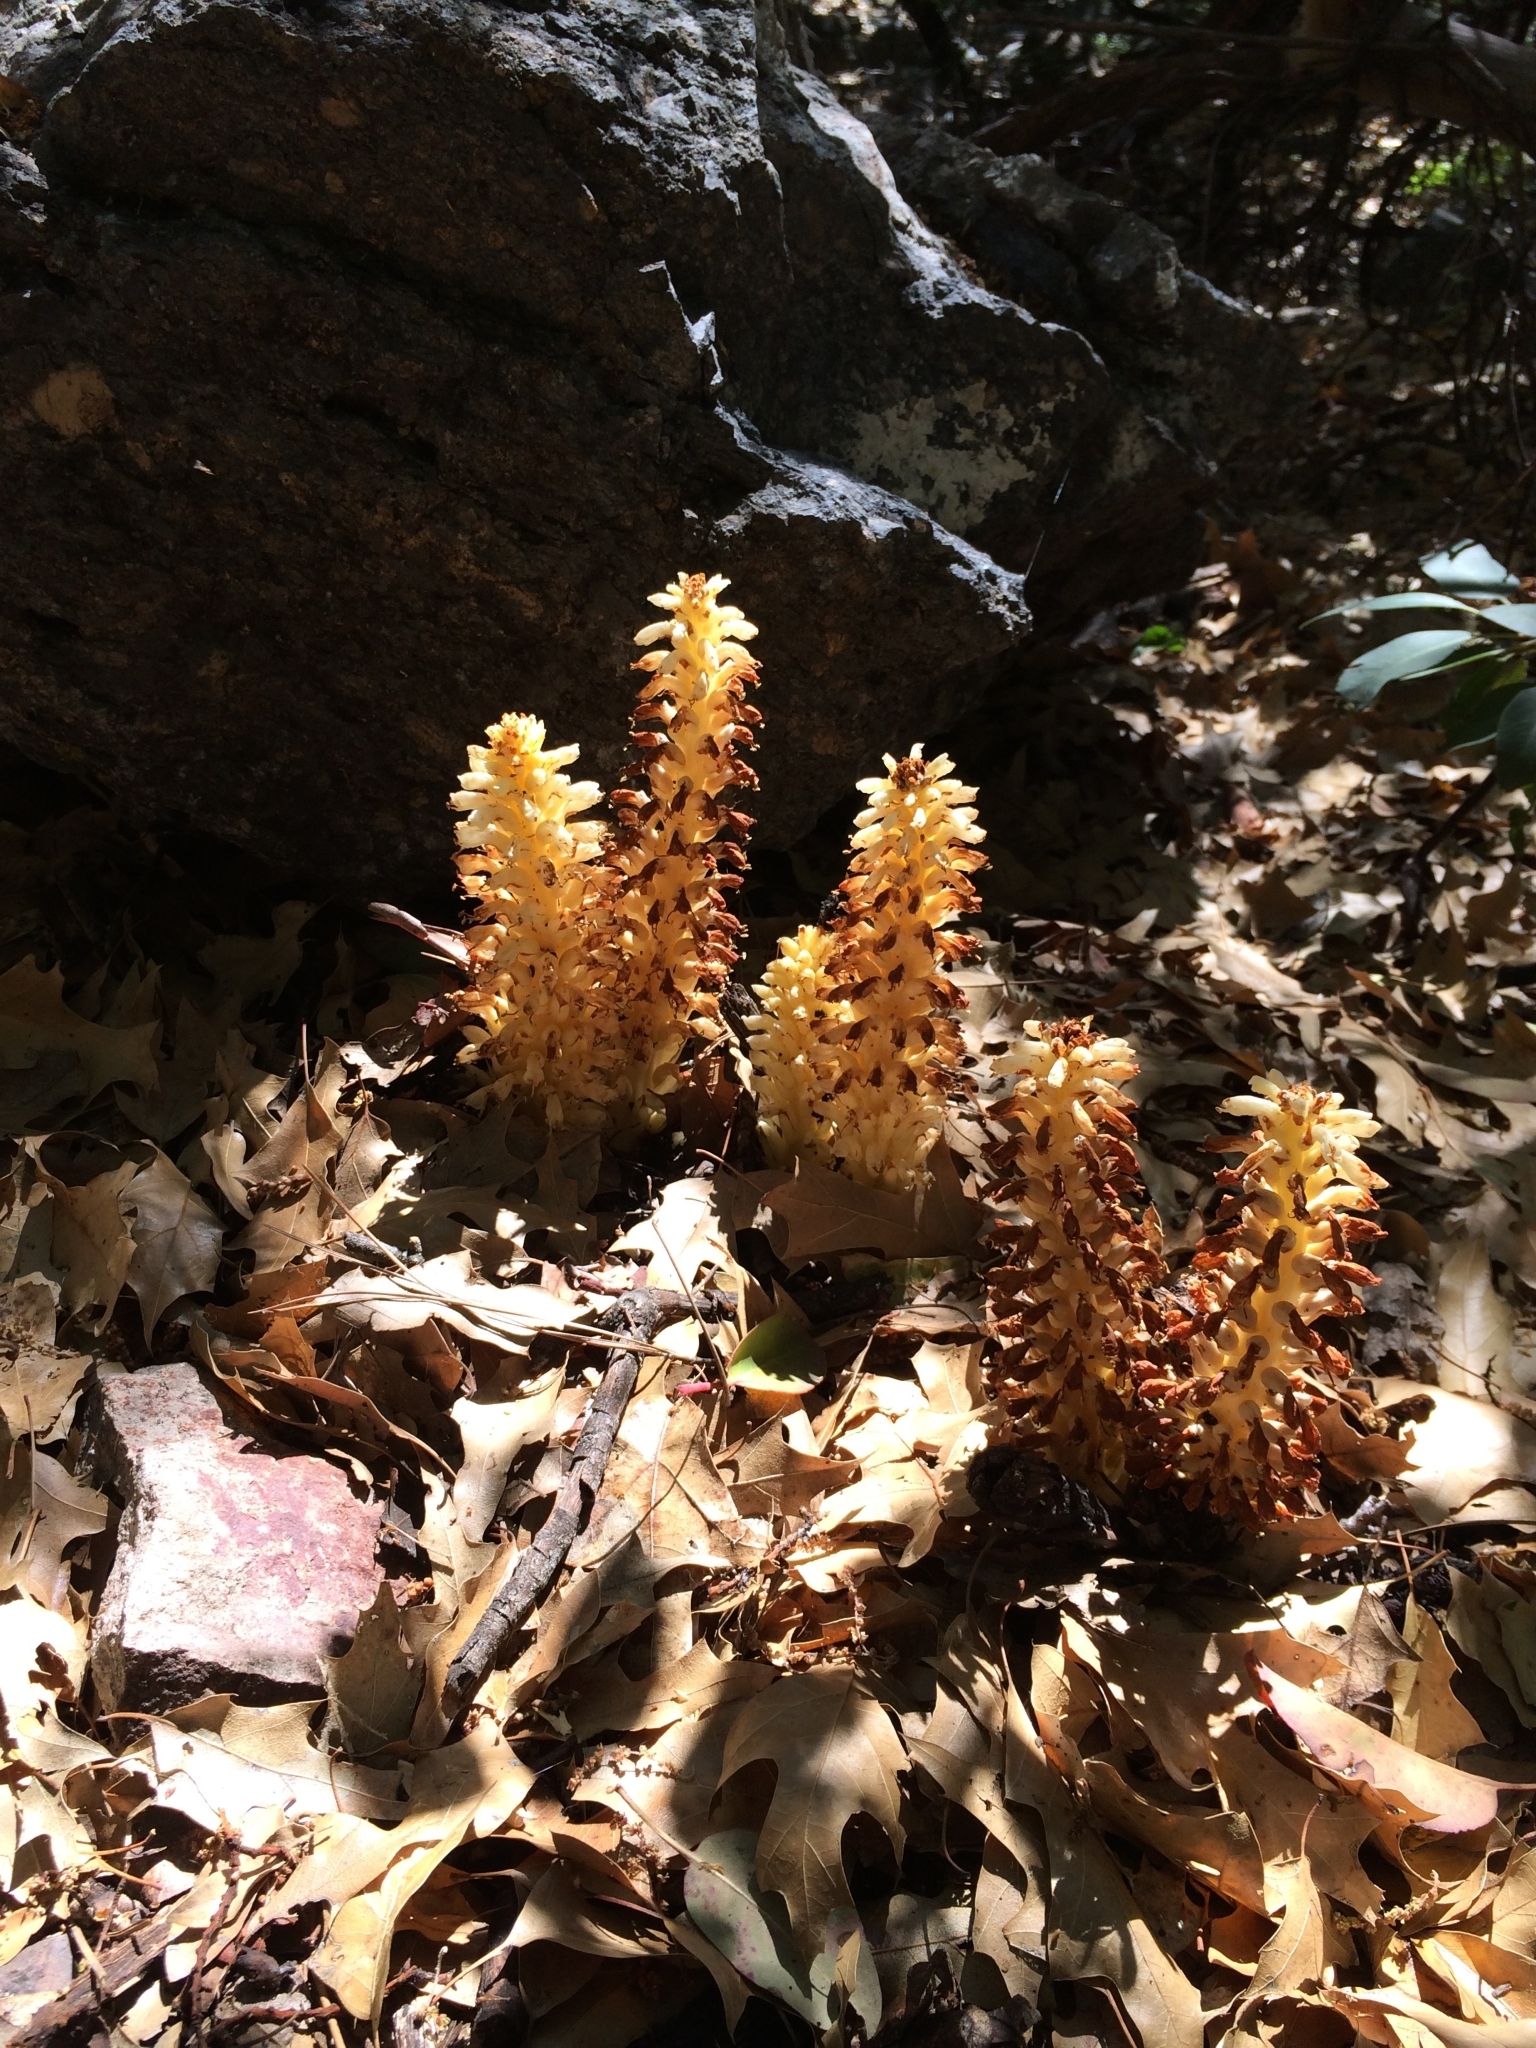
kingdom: Plantae
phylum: Tracheophyta
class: Magnoliopsida
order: Lamiales
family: Orobanchaceae
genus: Conopholis
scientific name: Conopholis alpina
